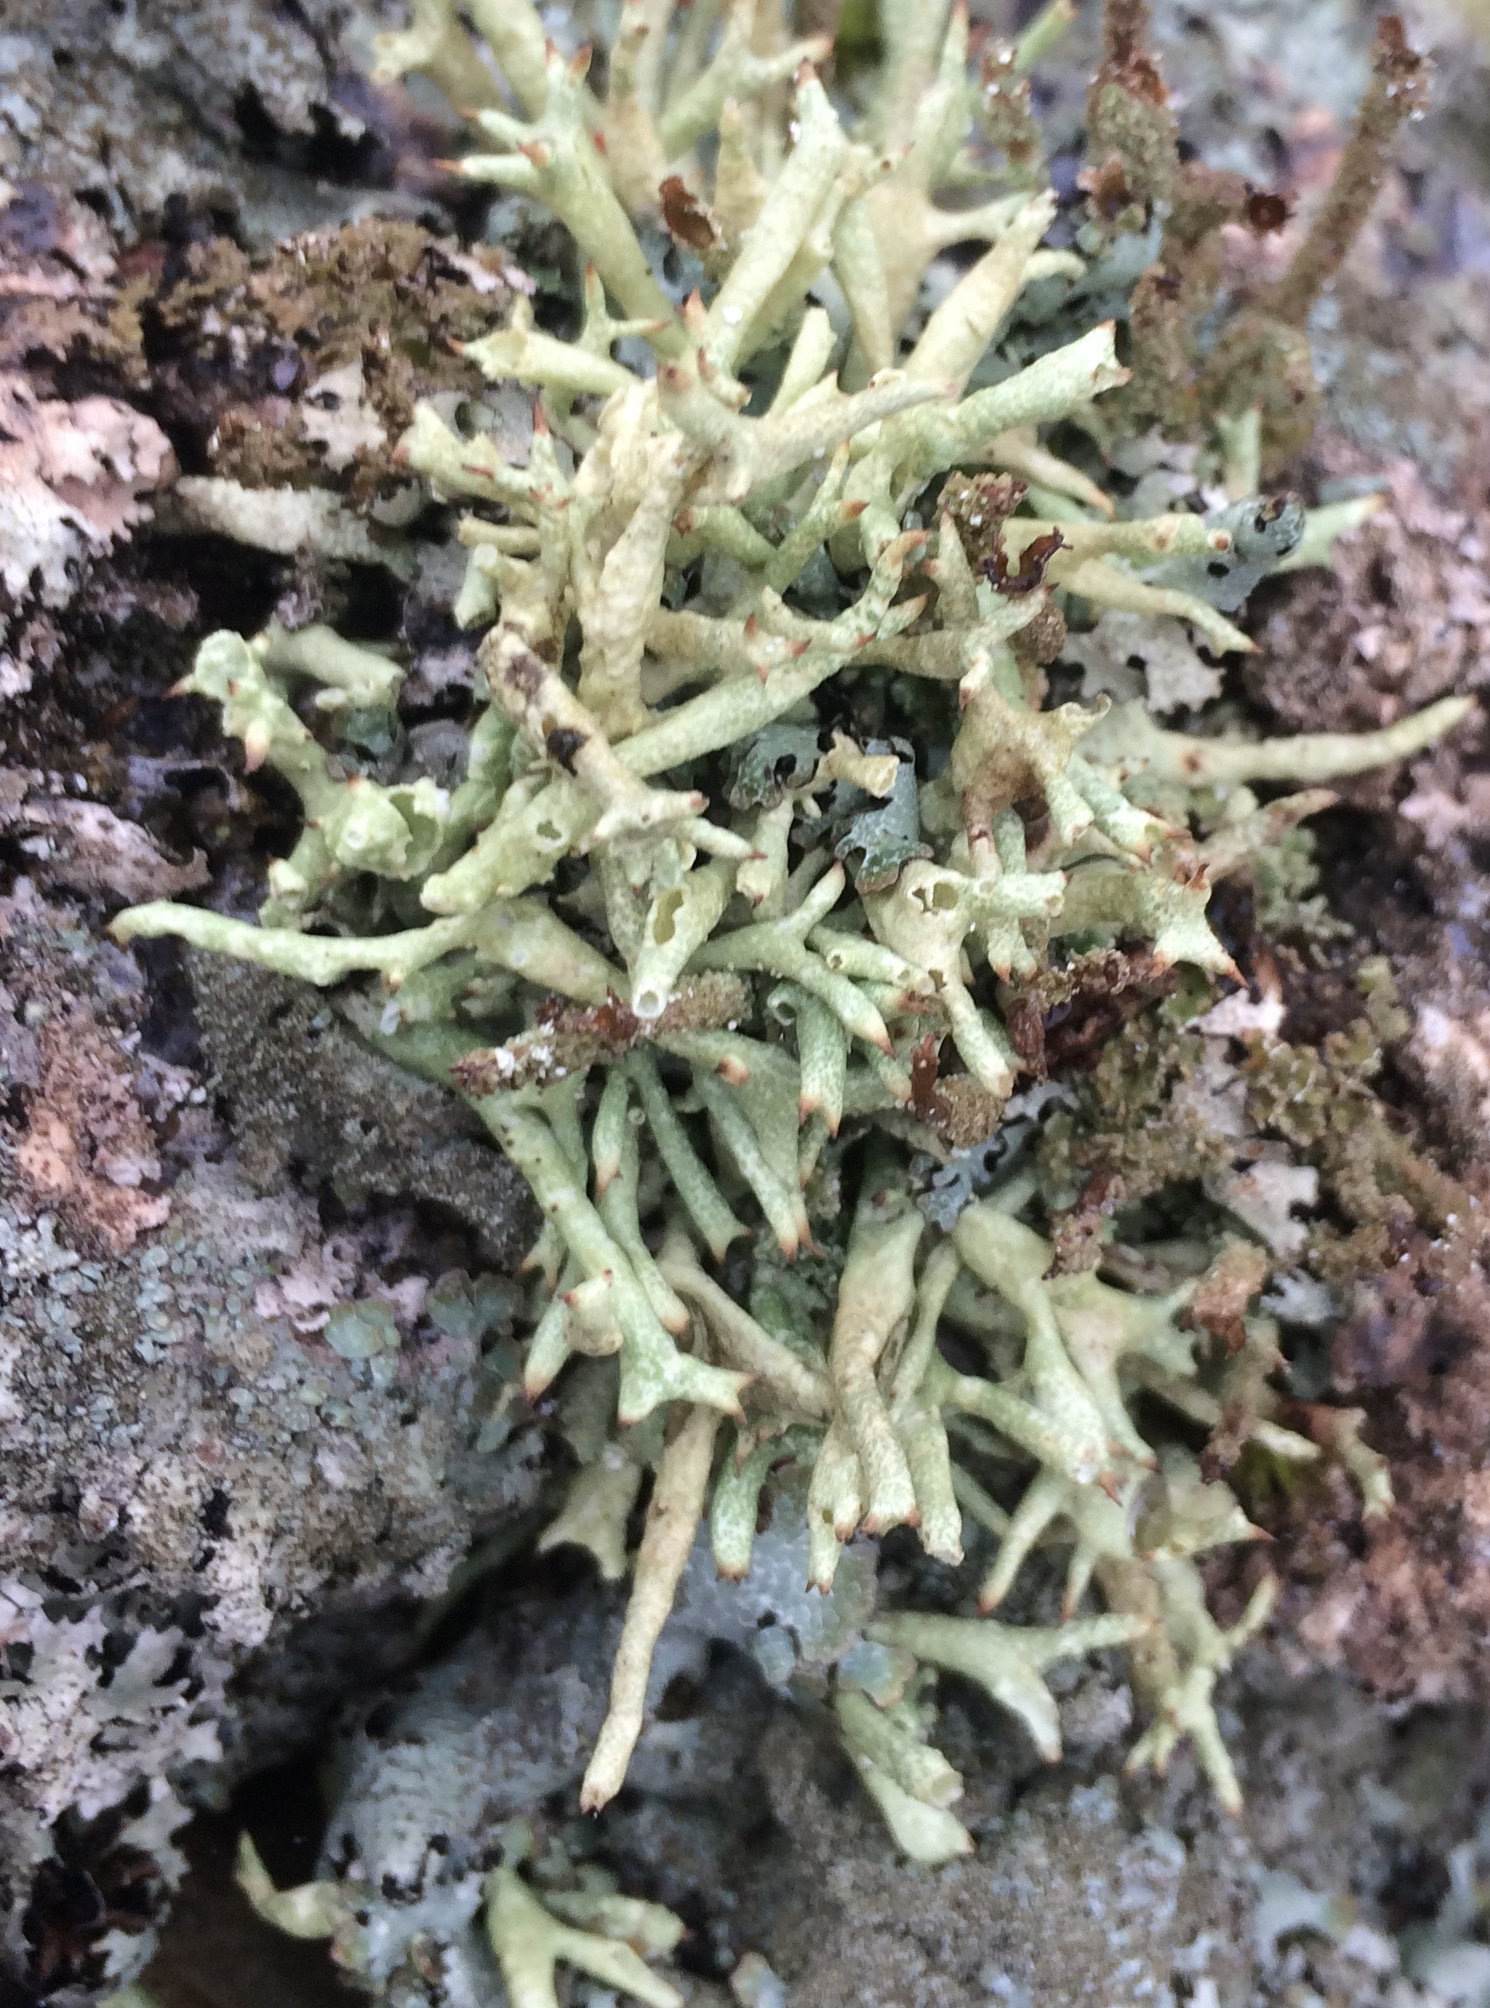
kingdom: Fungi
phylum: Ascomycota
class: Lecanoromycetes
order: Lecanorales
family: Cladoniaceae
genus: Cladonia
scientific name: Cladonia uncialis
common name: Thorn lichen
